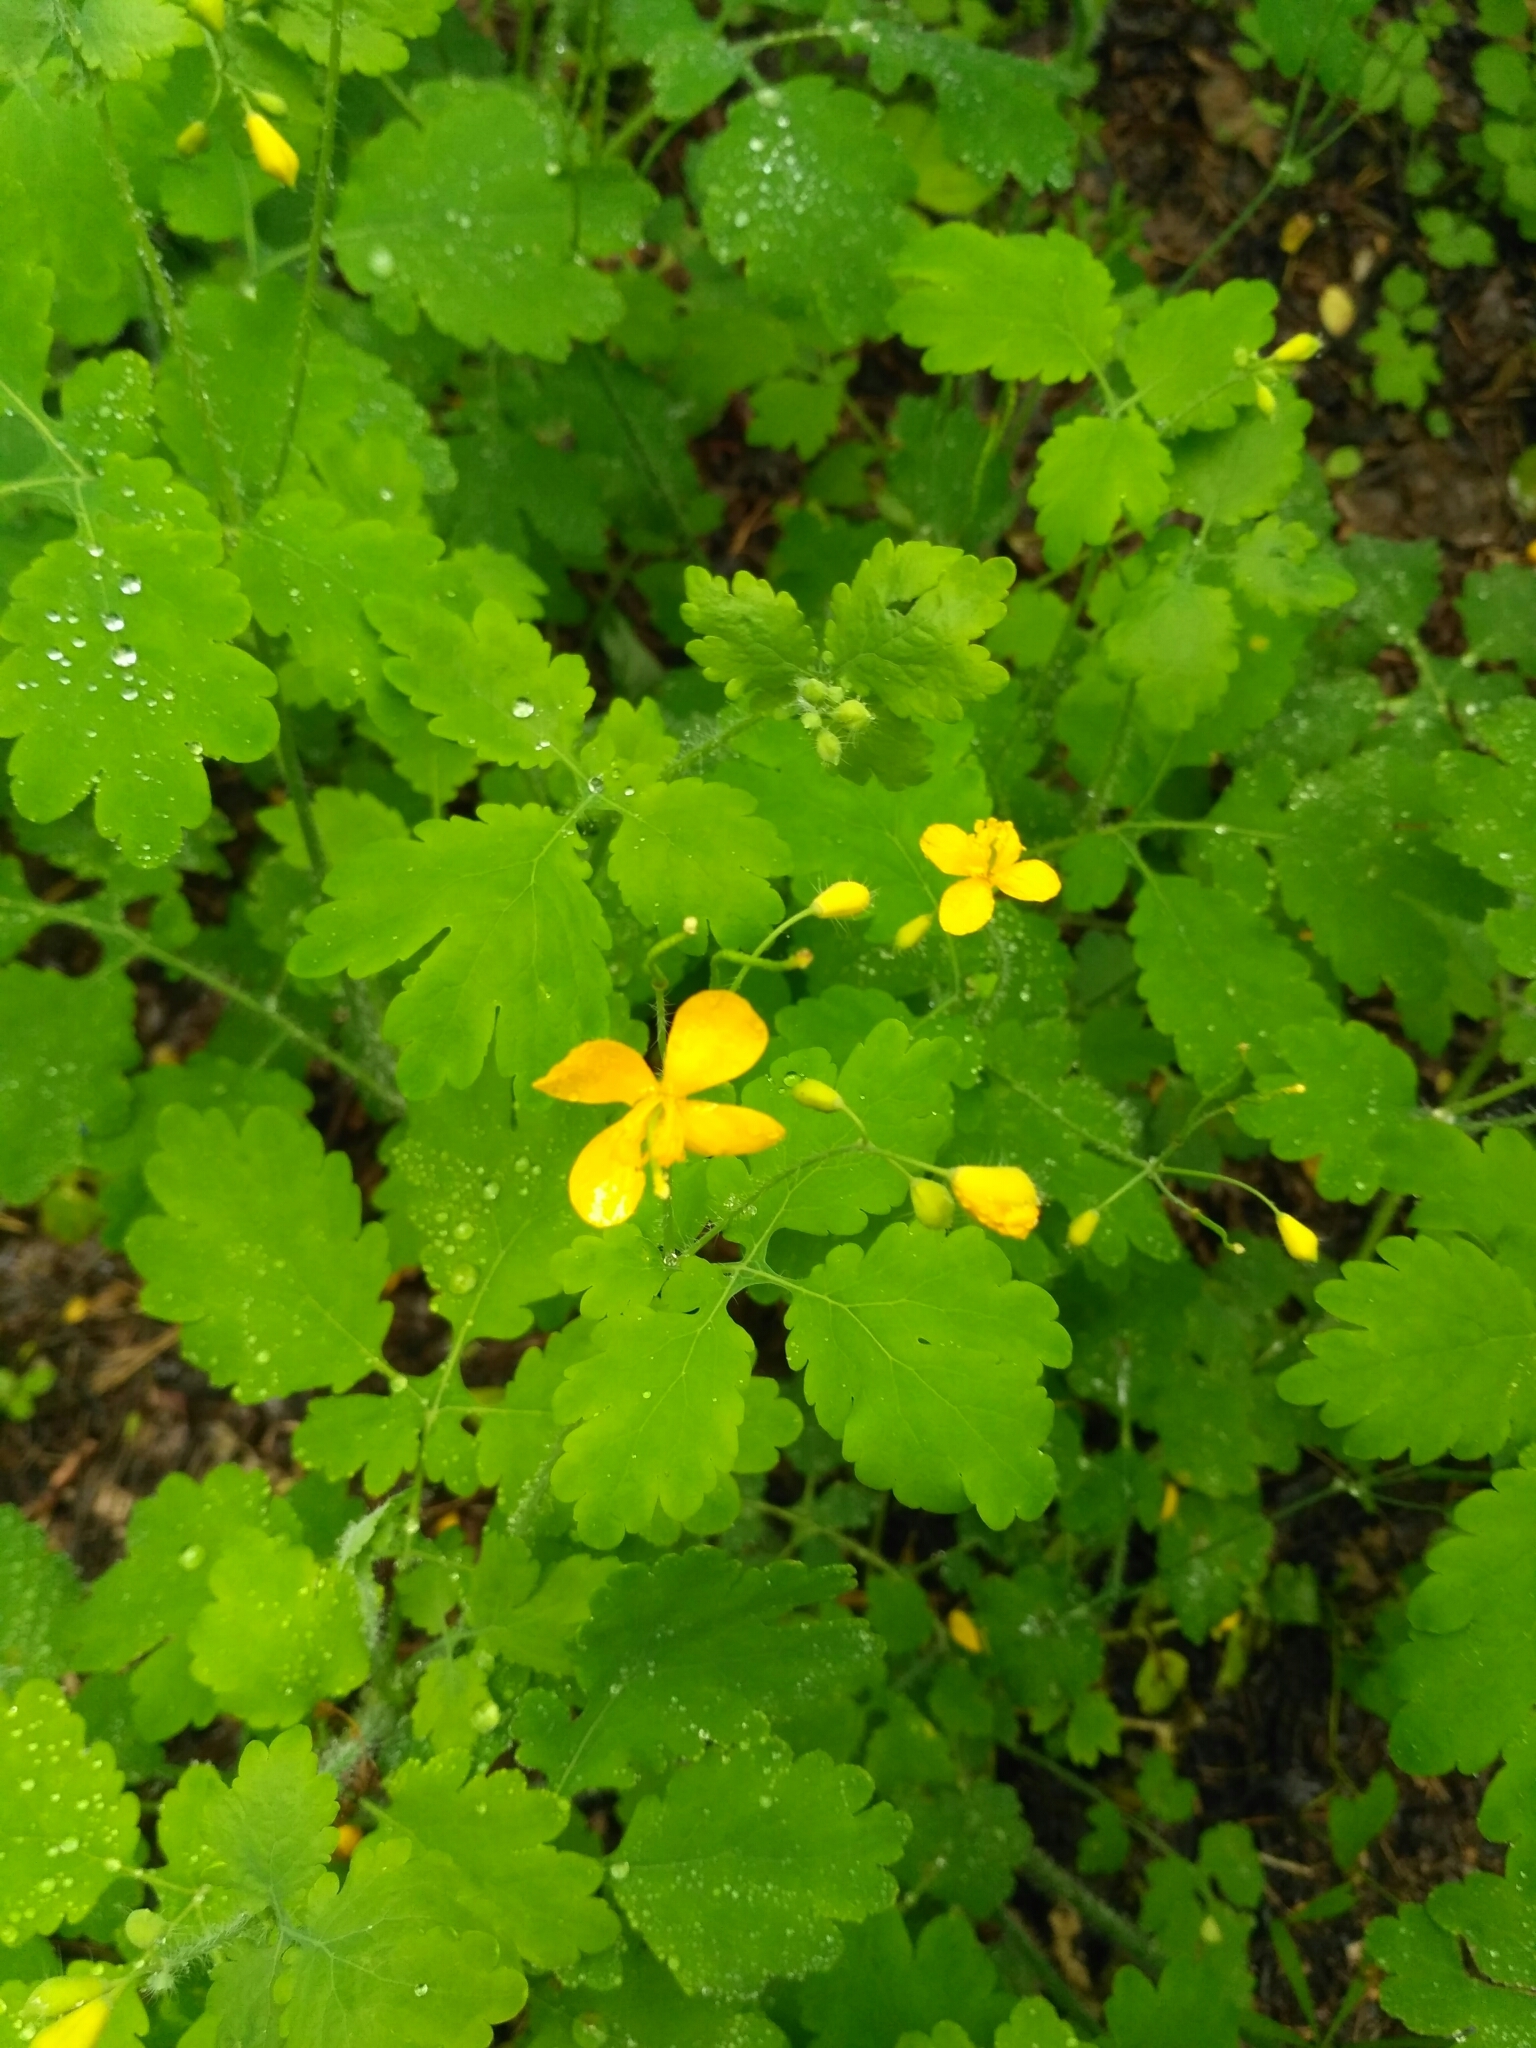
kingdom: Plantae
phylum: Tracheophyta
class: Magnoliopsida
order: Ranunculales
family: Papaveraceae
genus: Chelidonium
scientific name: Chelidonium majus
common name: Greater celandine
